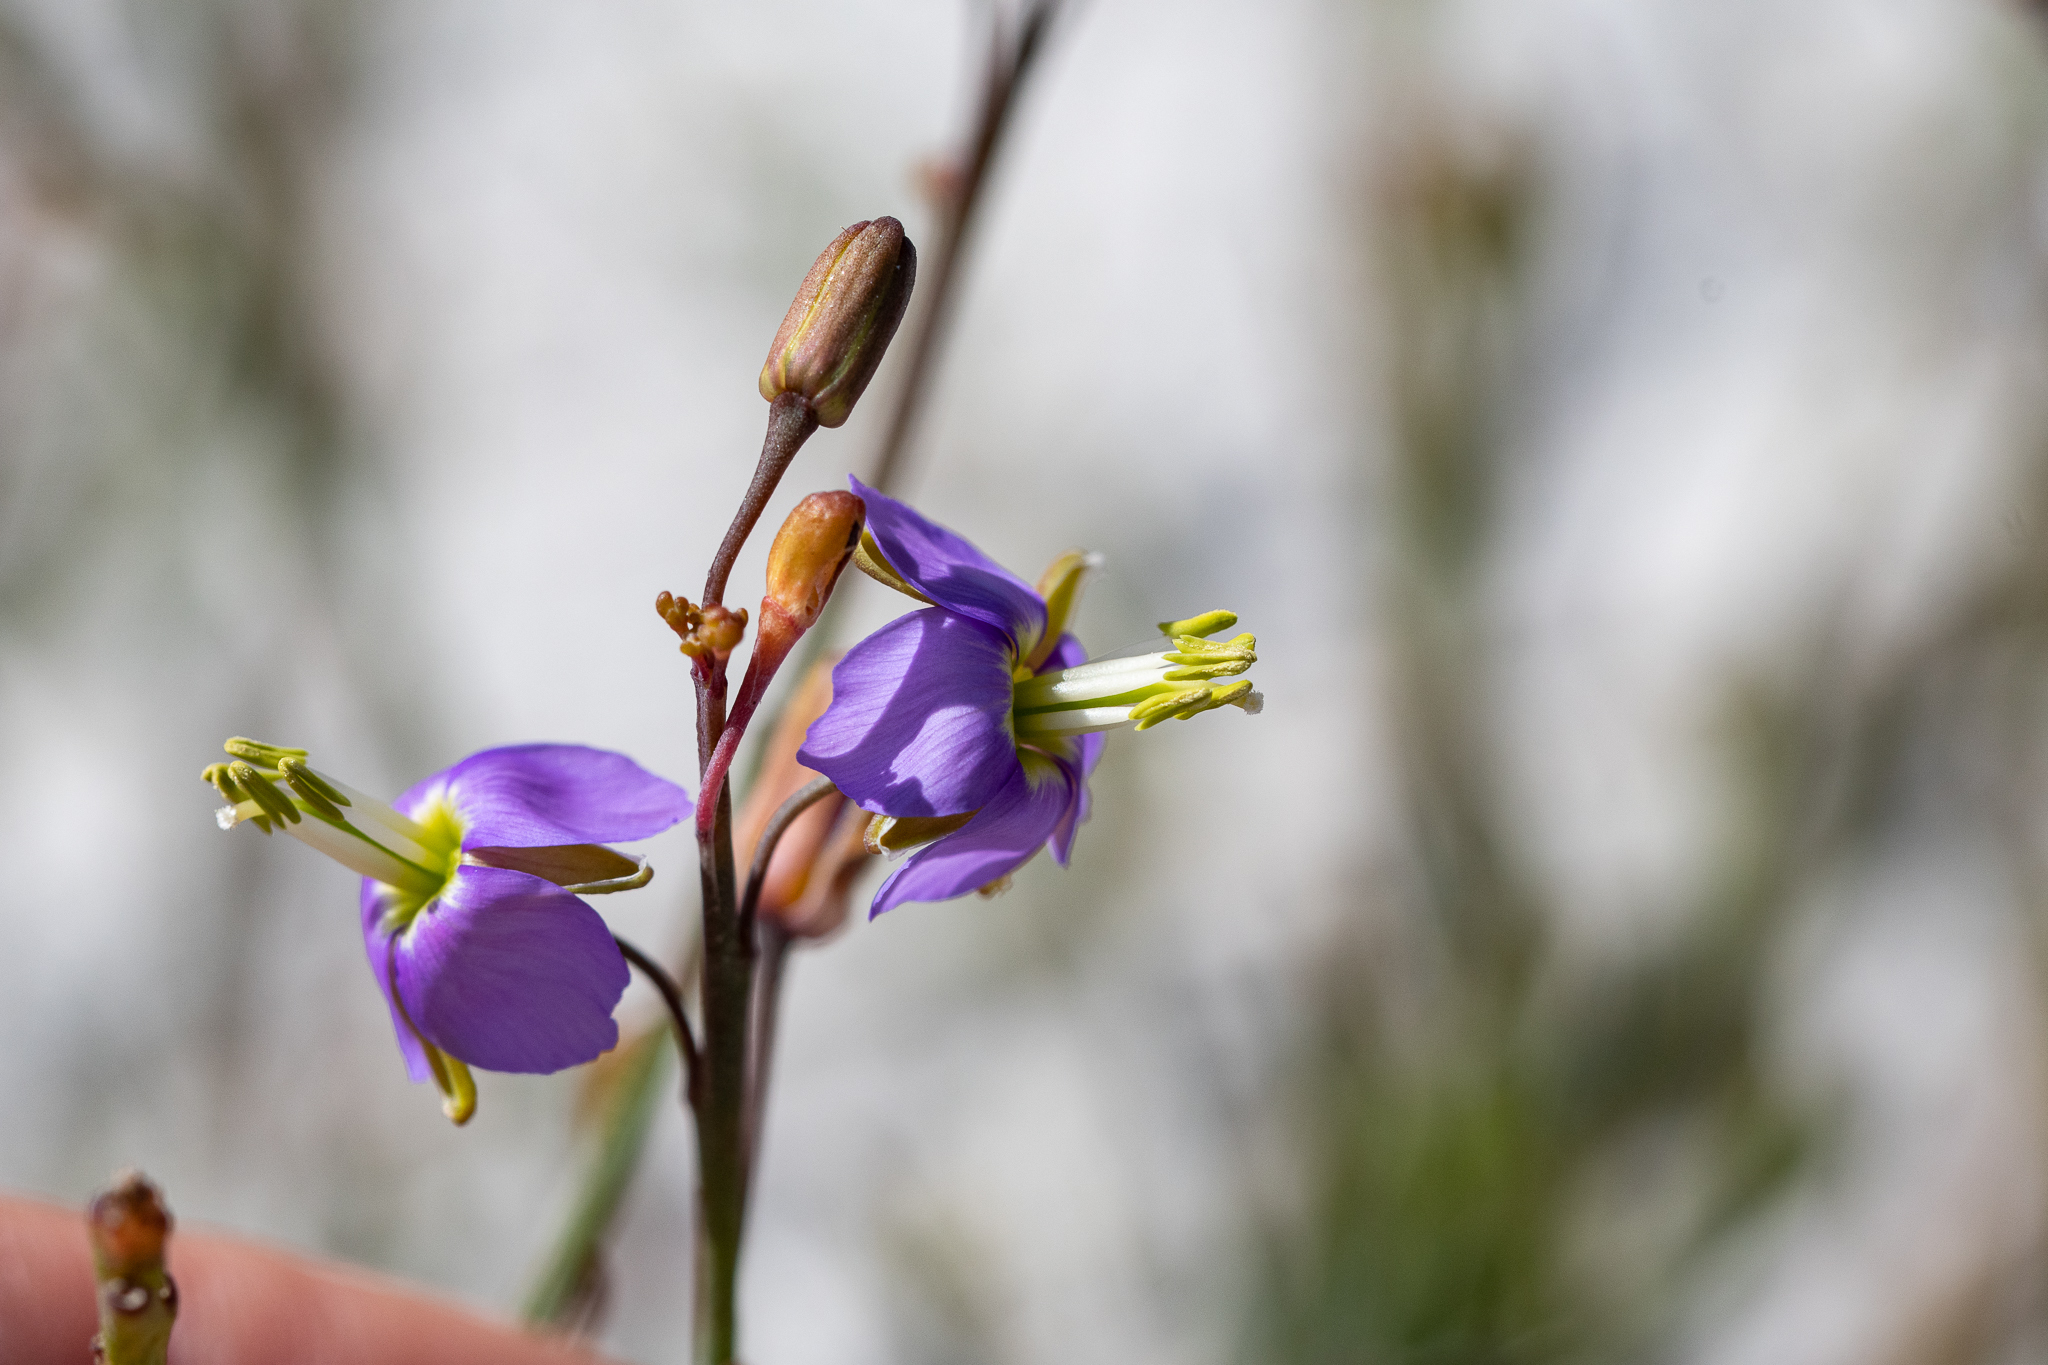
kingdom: Plantae
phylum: Tracheophyta
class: Magnoliopsida
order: Brassicales
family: Brassicaceae
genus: Heliophila
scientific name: Heliophila linearis
